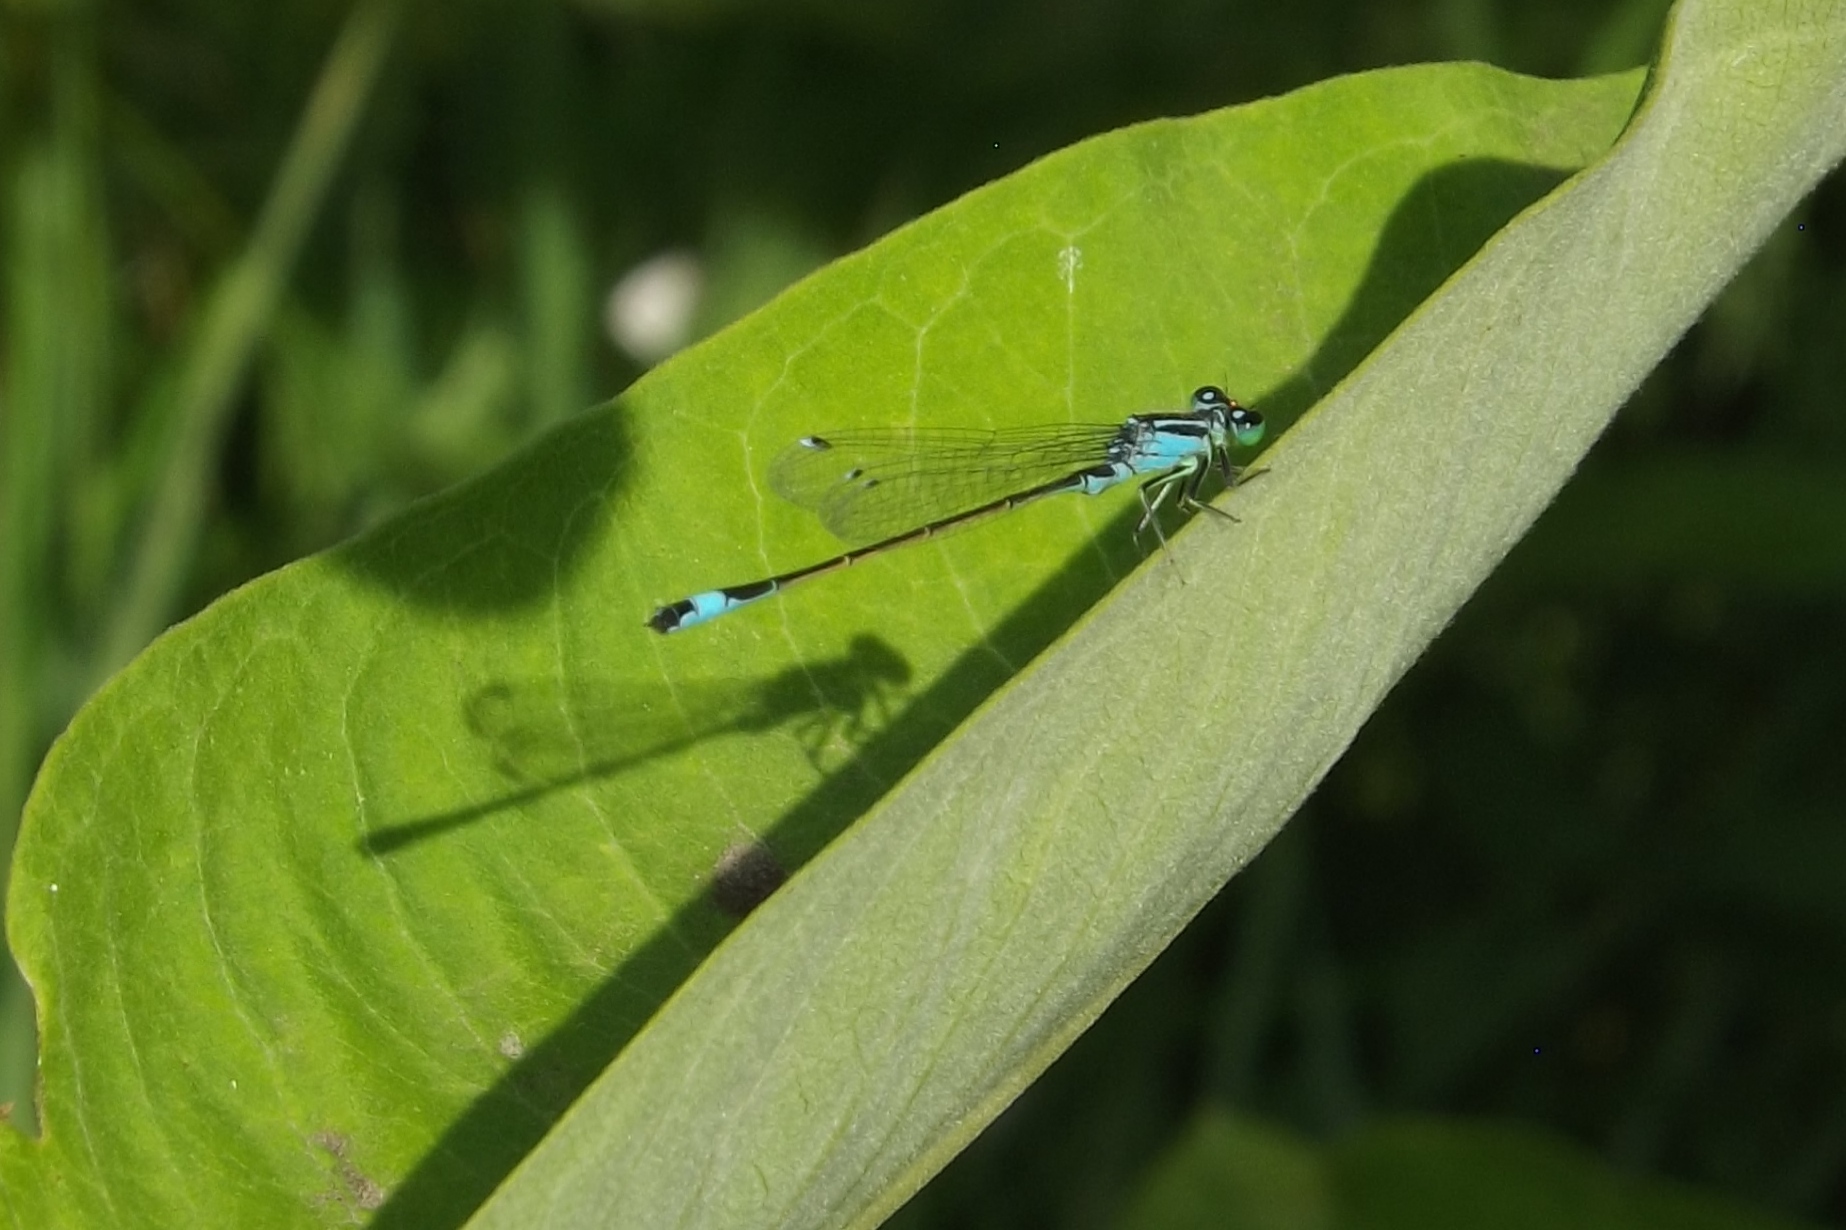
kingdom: Animalia
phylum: Arthropoda
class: Insecta
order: Odonata
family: Coenagrionidae
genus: Ischnura
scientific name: Ischnura elegans
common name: Blue-tailed damselfly
